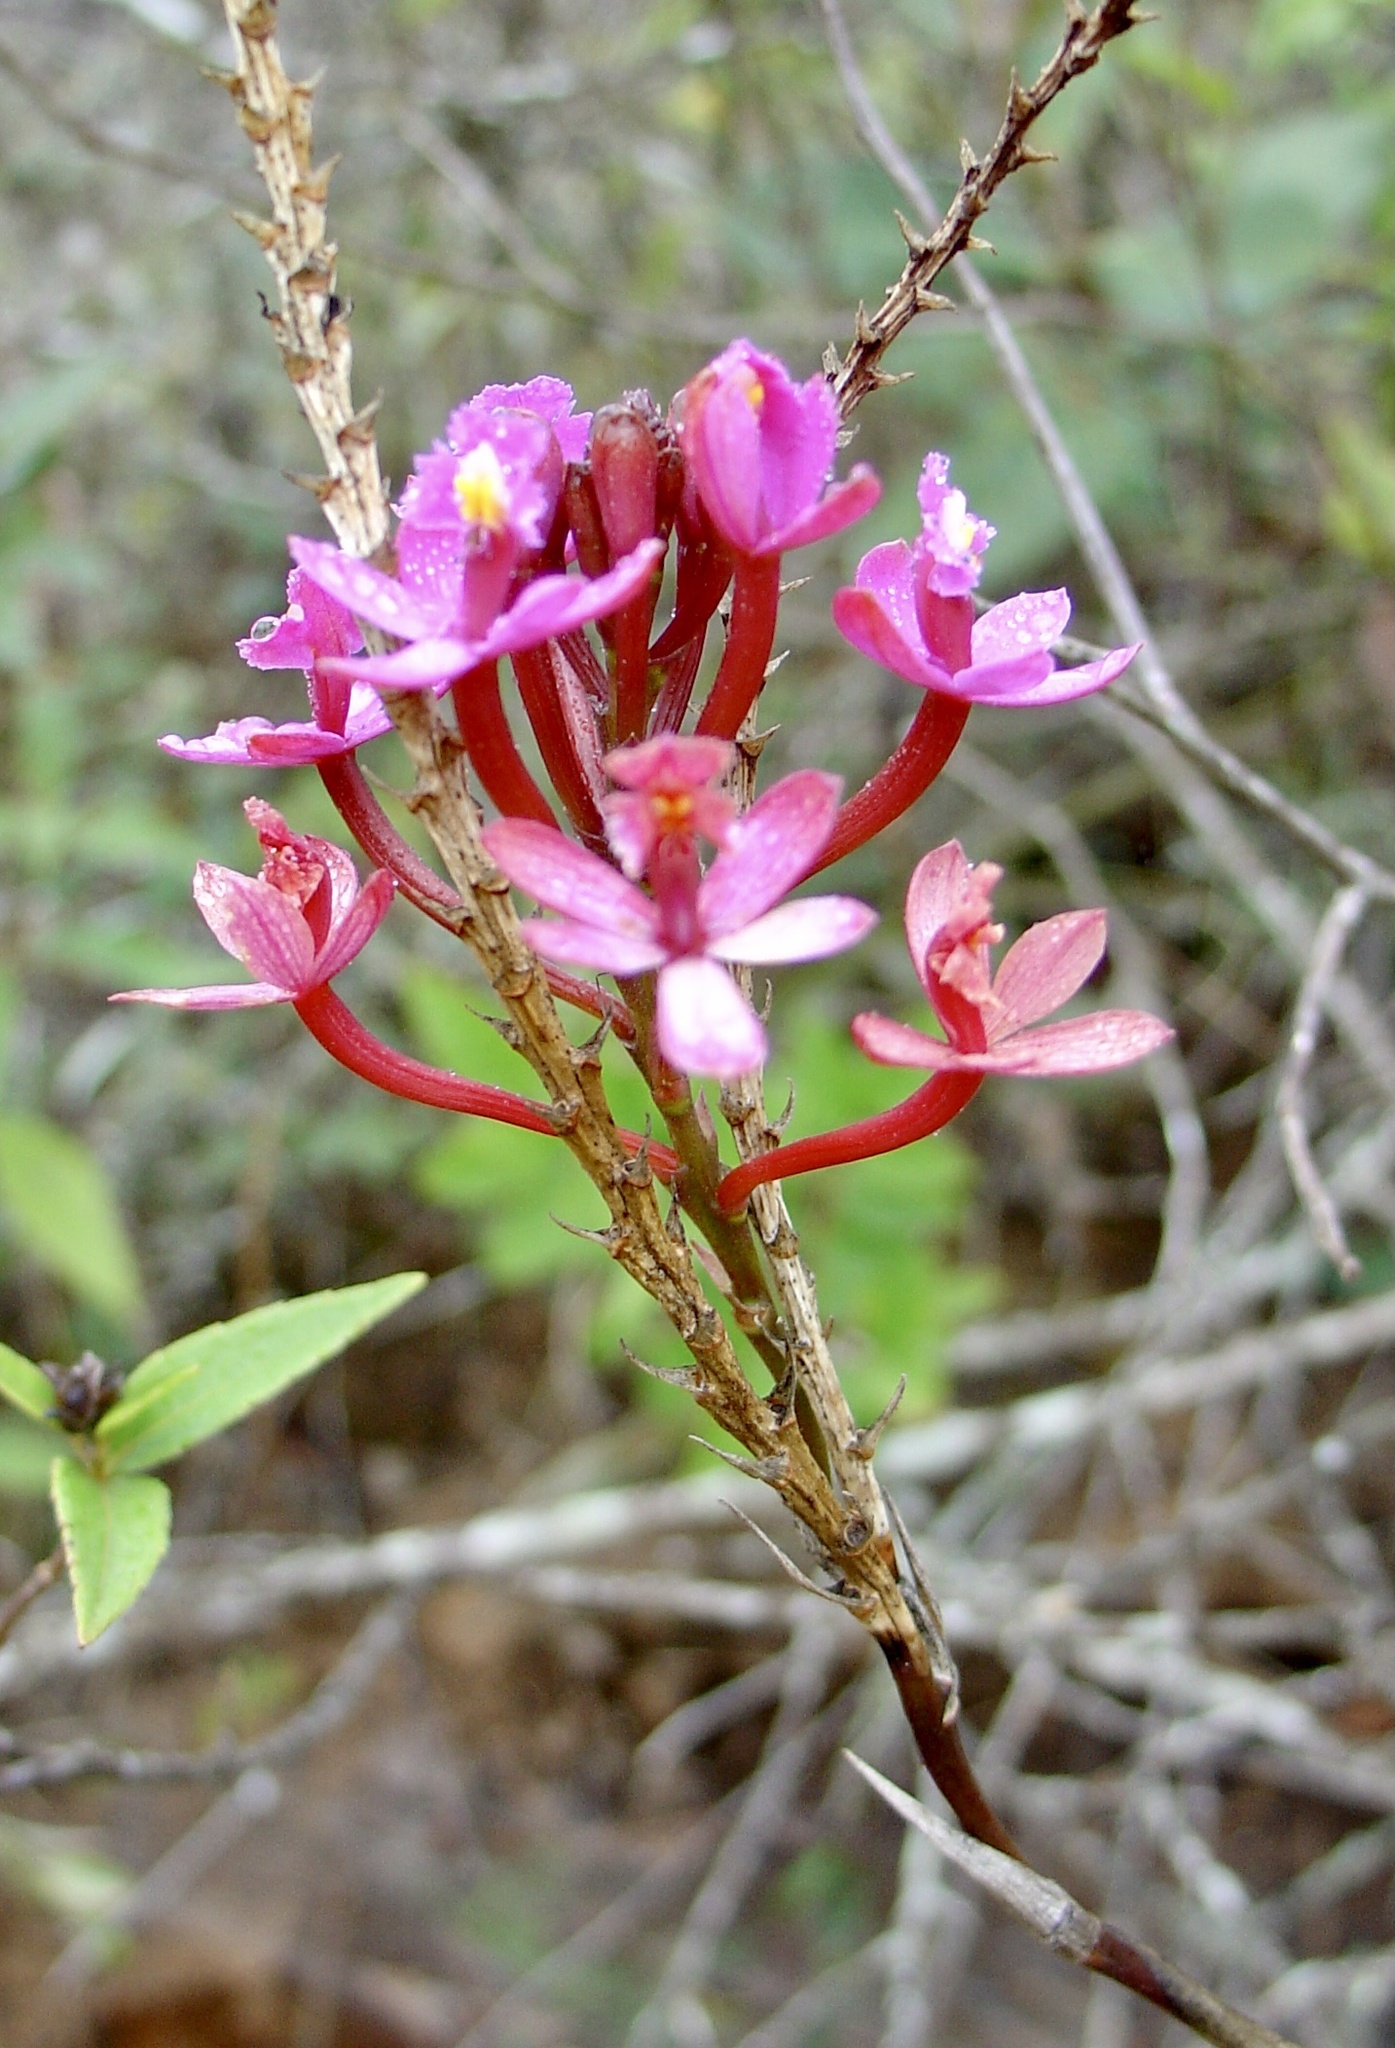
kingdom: Plantae
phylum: Tracheophyta
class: Liliopsida
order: Asparagales
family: Orchidaceae
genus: Epidendrum
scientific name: Epidendrum secundum
